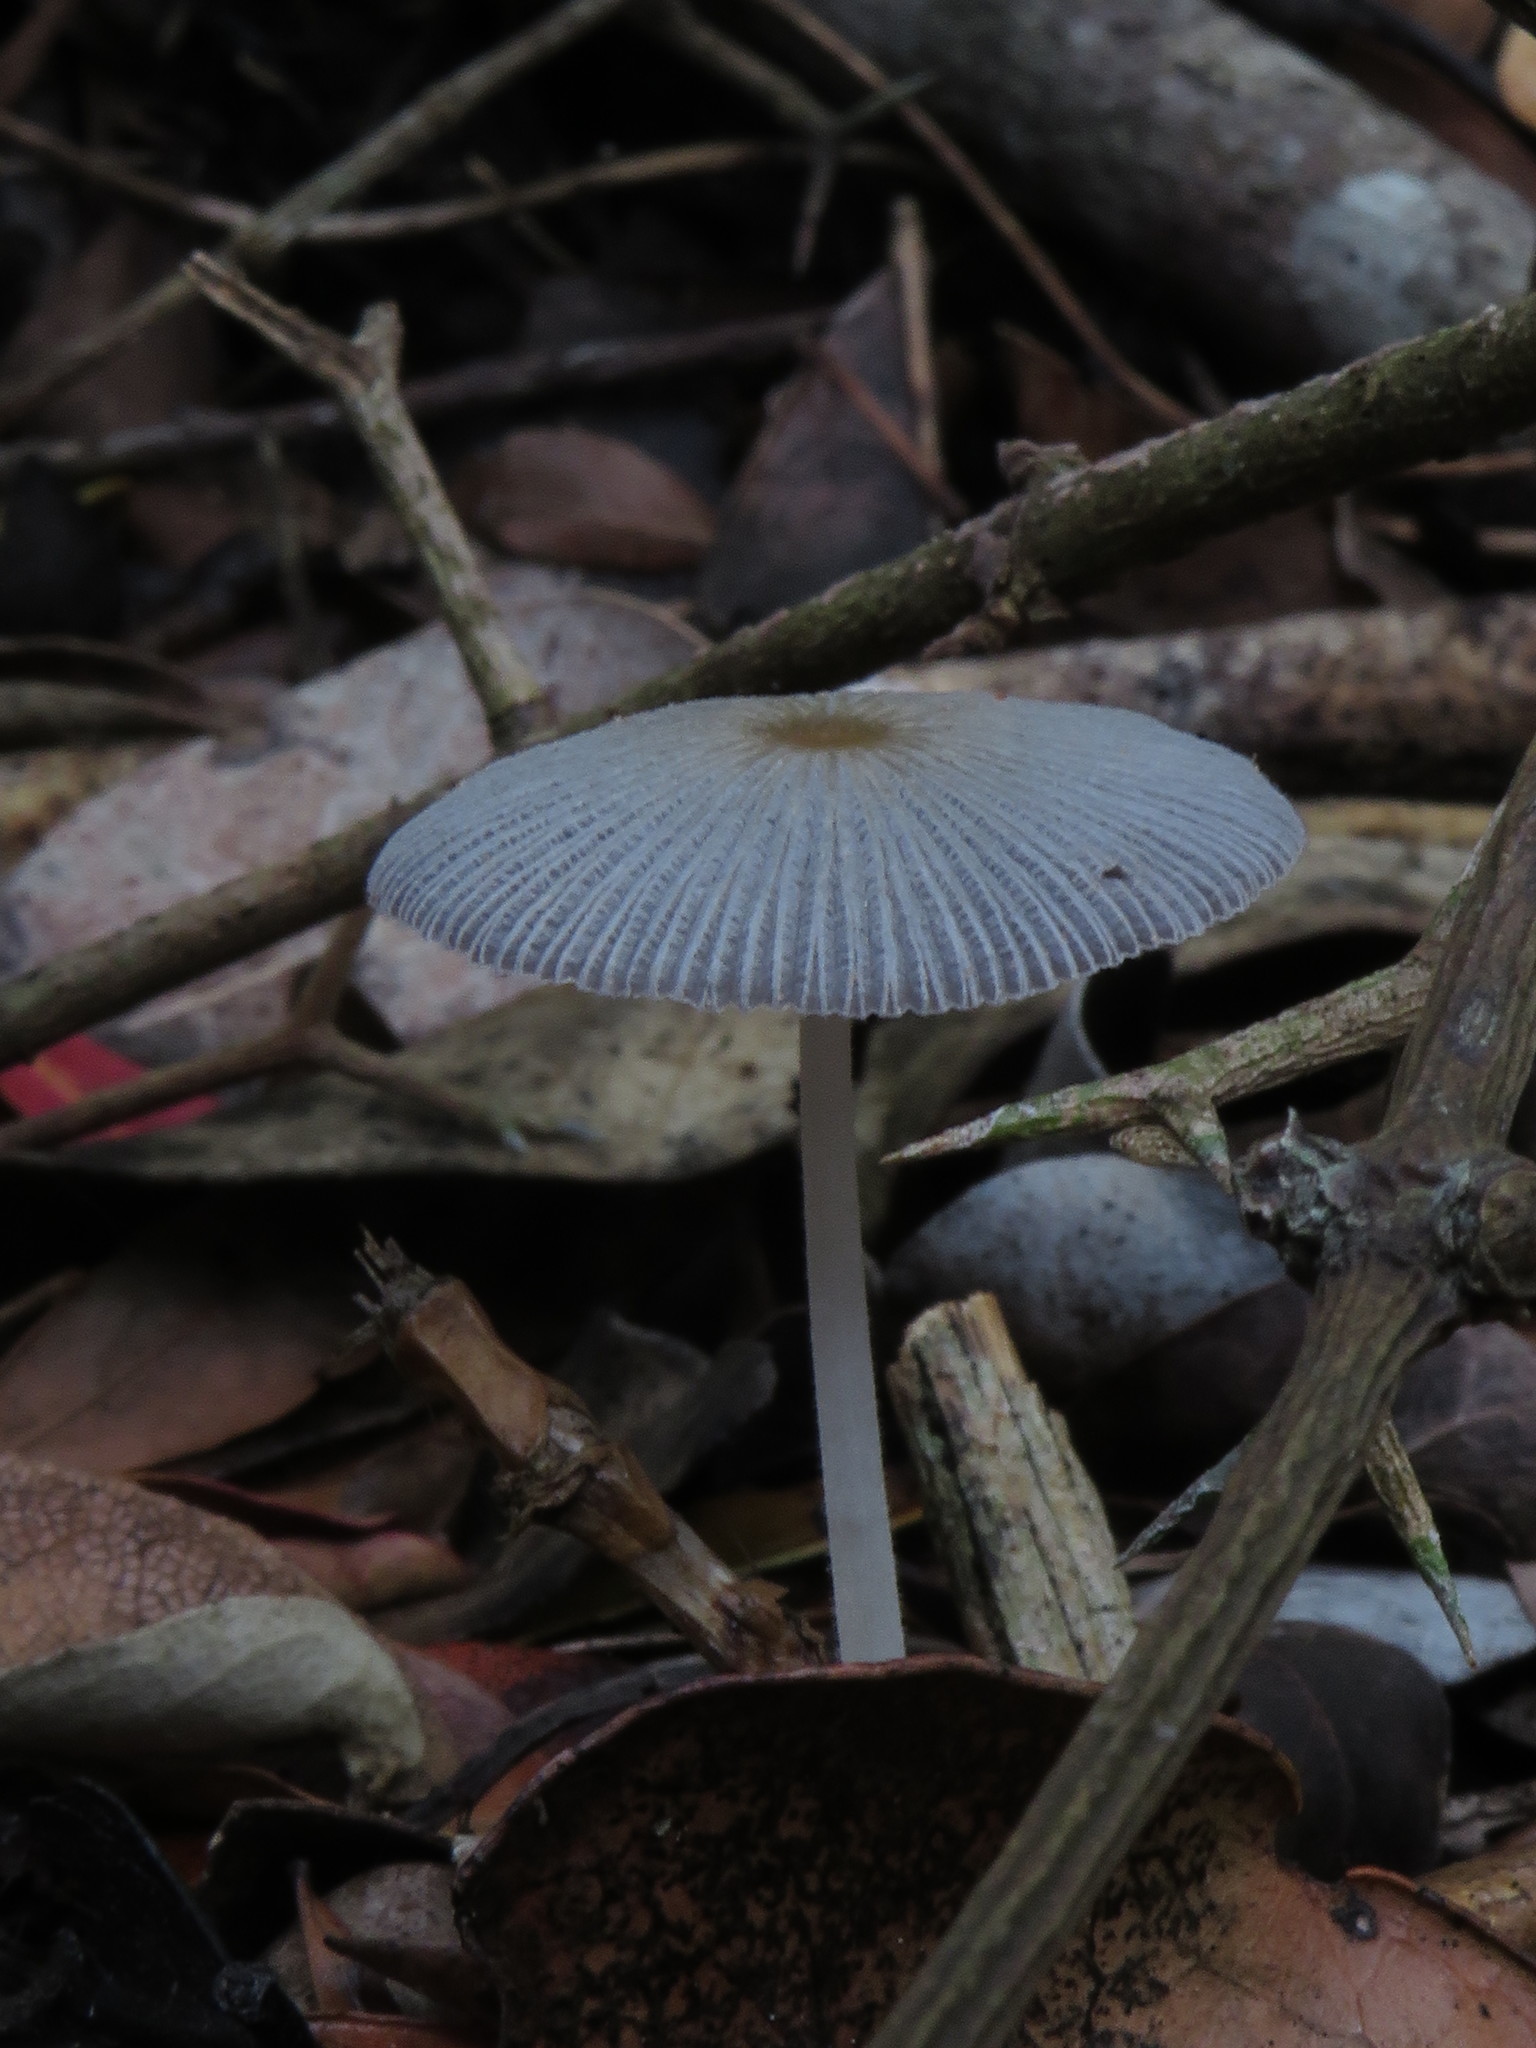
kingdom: Fungi
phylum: Basidiomycota
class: Agaricomycetes
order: Agaricales
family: Psathyrellaceae
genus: Parasola
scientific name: Parasola plicatilis
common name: Pleated inkcap
